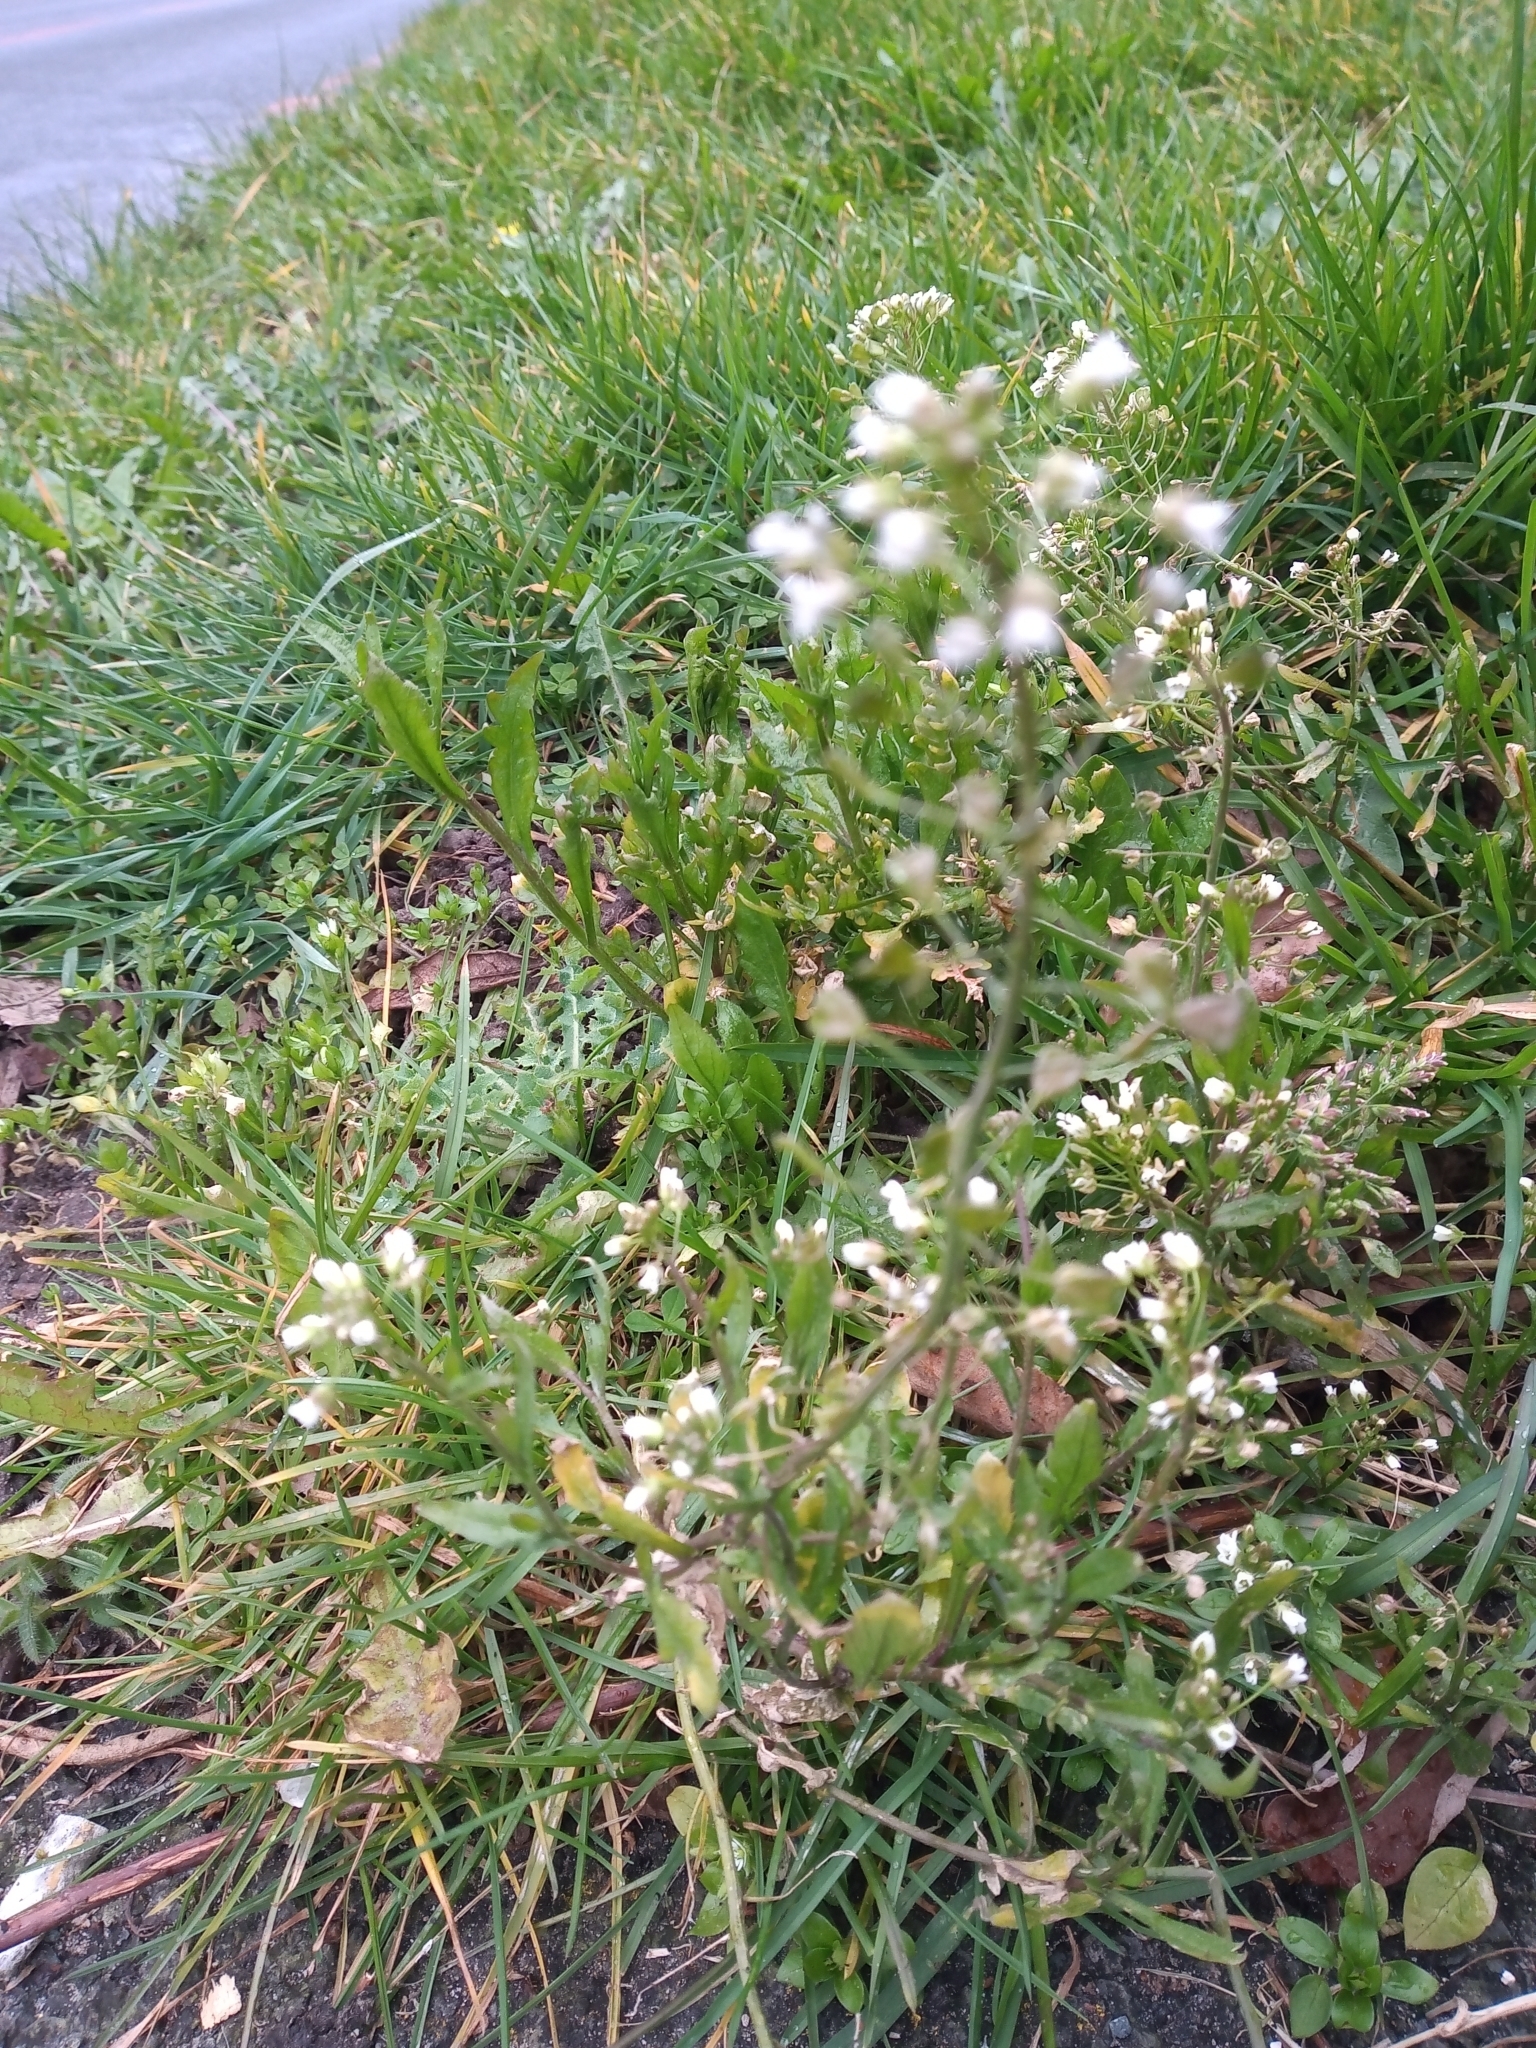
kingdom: Plantae
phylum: Tracheophyta
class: Magnoliopsida
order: Brassicales
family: Brassicaceae
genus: Capsella
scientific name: Capsella bursa-pastoris
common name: Shepherd's purse
